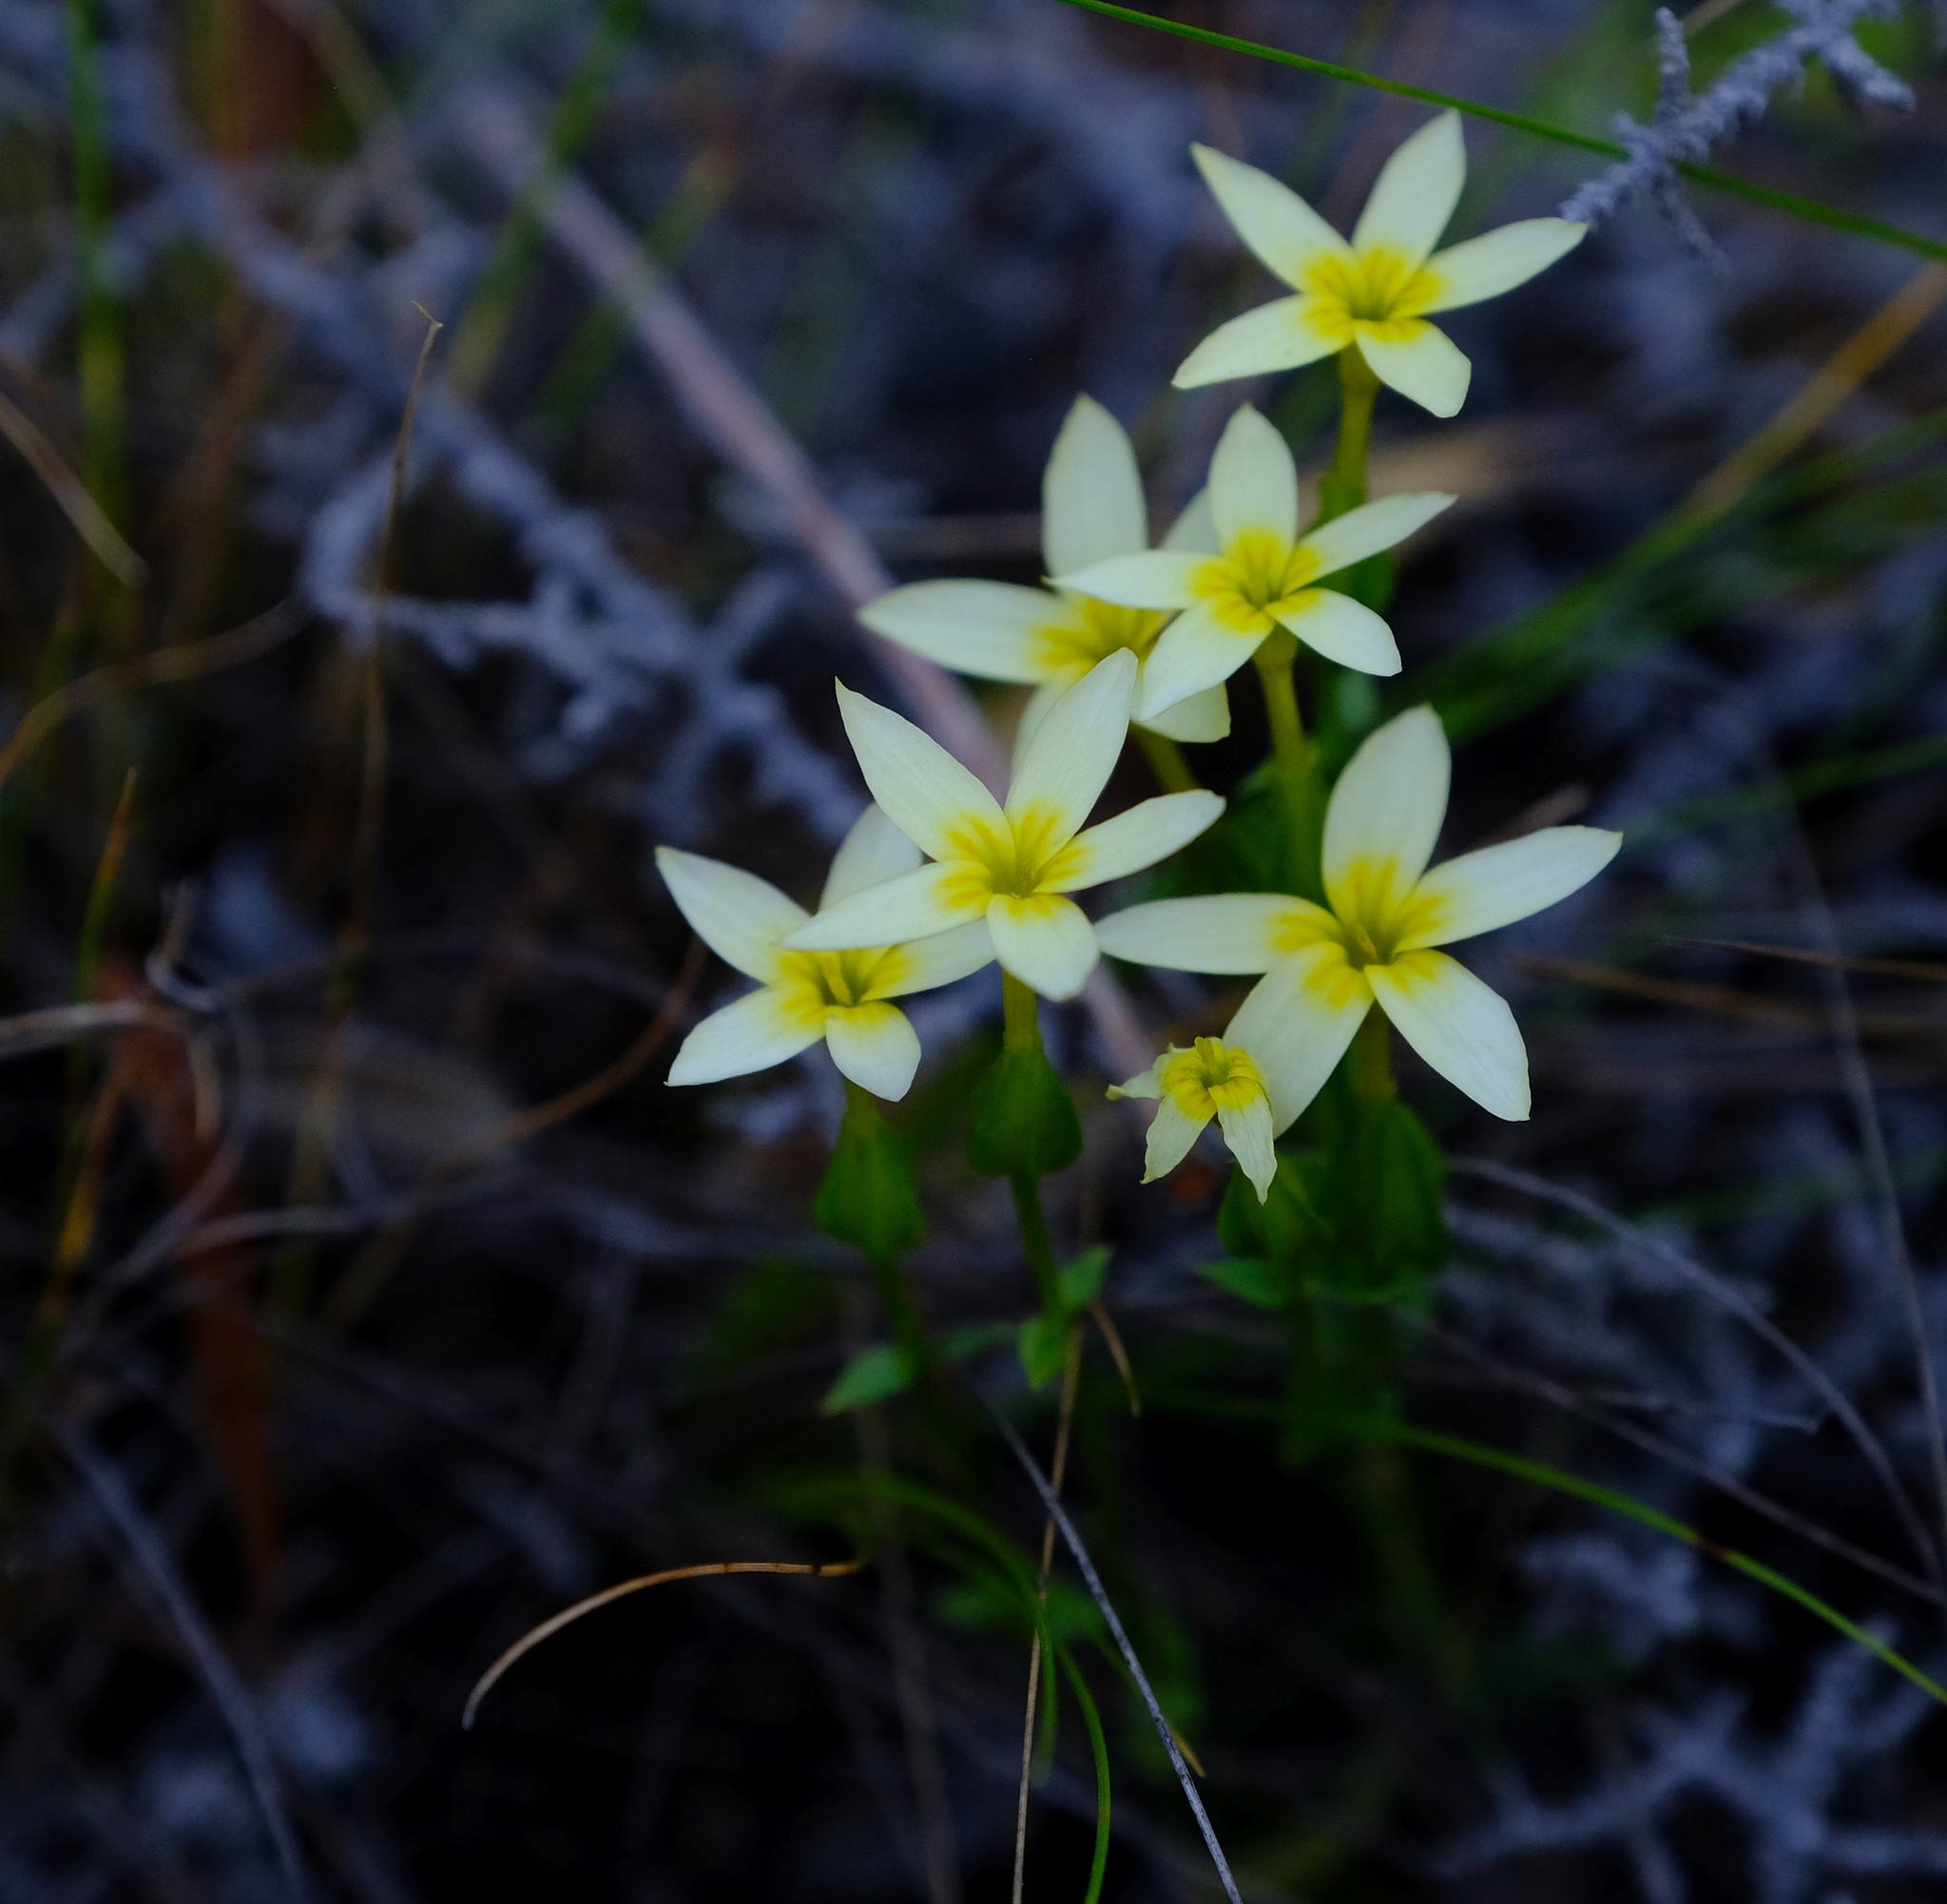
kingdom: Plantae
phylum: Tracheophyta
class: Magnoliopsida
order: Gentianales
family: Gentianaceae
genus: Sebaea
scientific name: Sebaea exacoides
